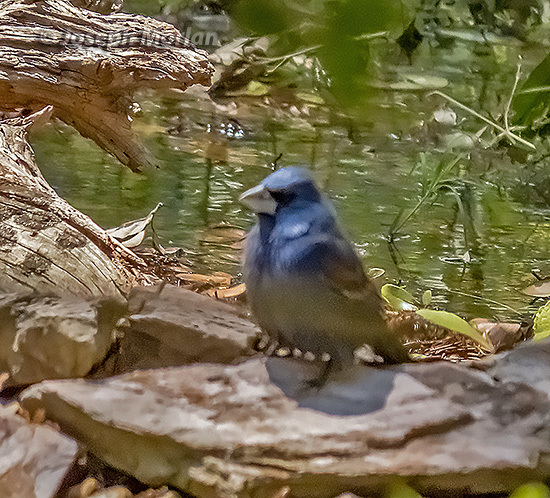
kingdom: Animalia
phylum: Chordata
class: Aves
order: Passeriformes
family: Cardinalidae
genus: Passerina
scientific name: Passerina caerulea
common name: Blue grosbeak
